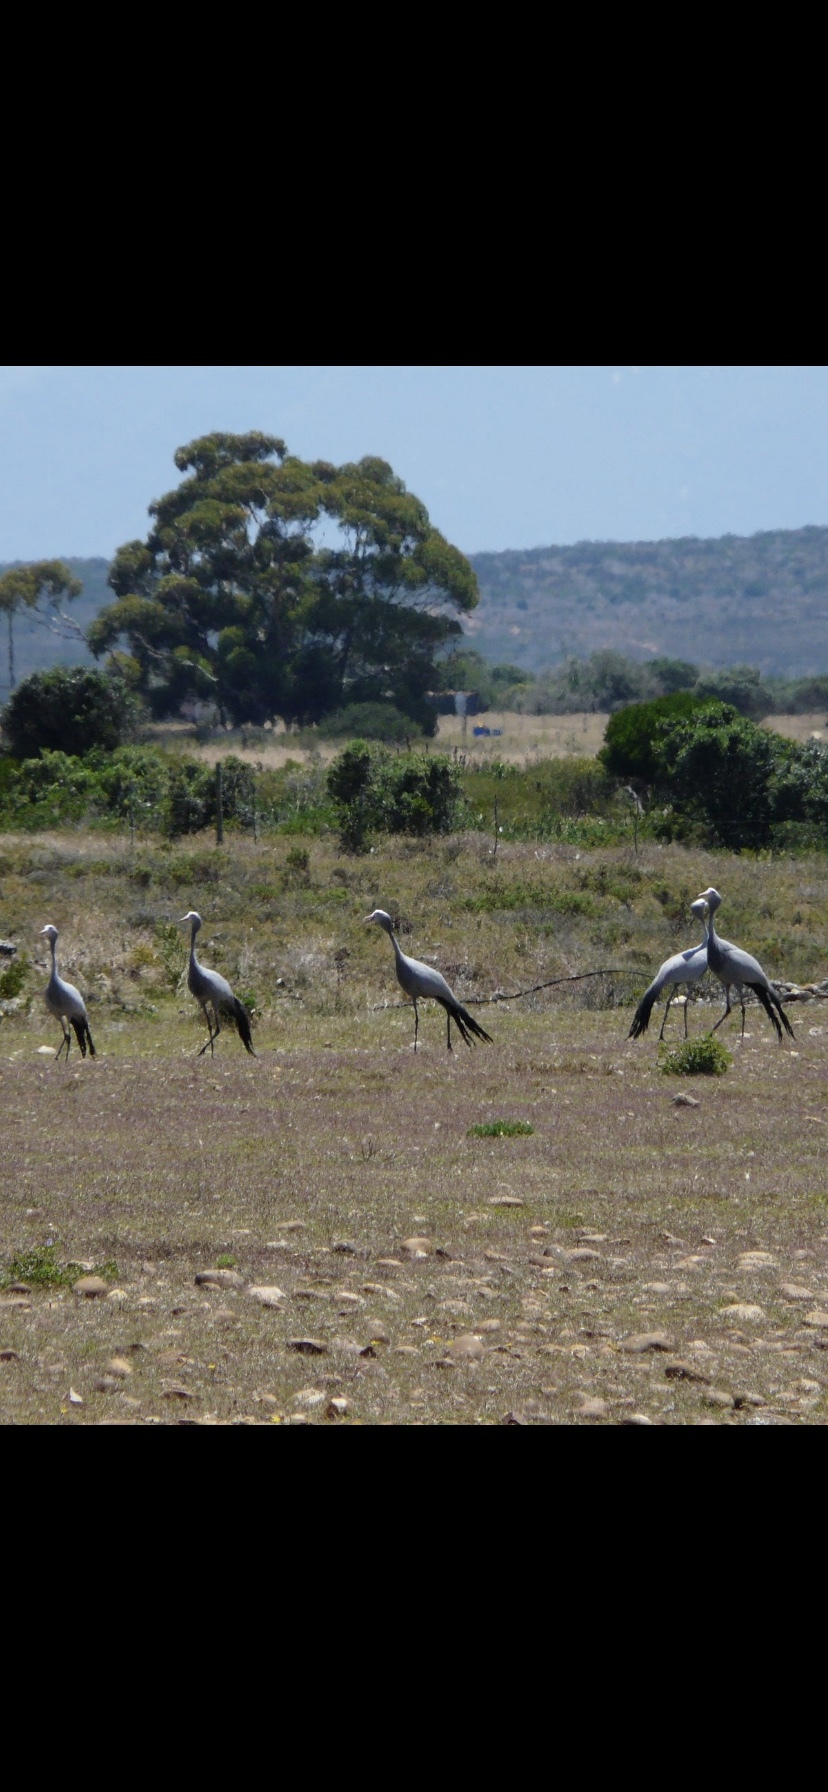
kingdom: Animalia
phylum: Chordata
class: Aves
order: Gruiformes
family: Gruidae
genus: Anthropoides
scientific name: Anthropoides paradiseus
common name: Blue crane
